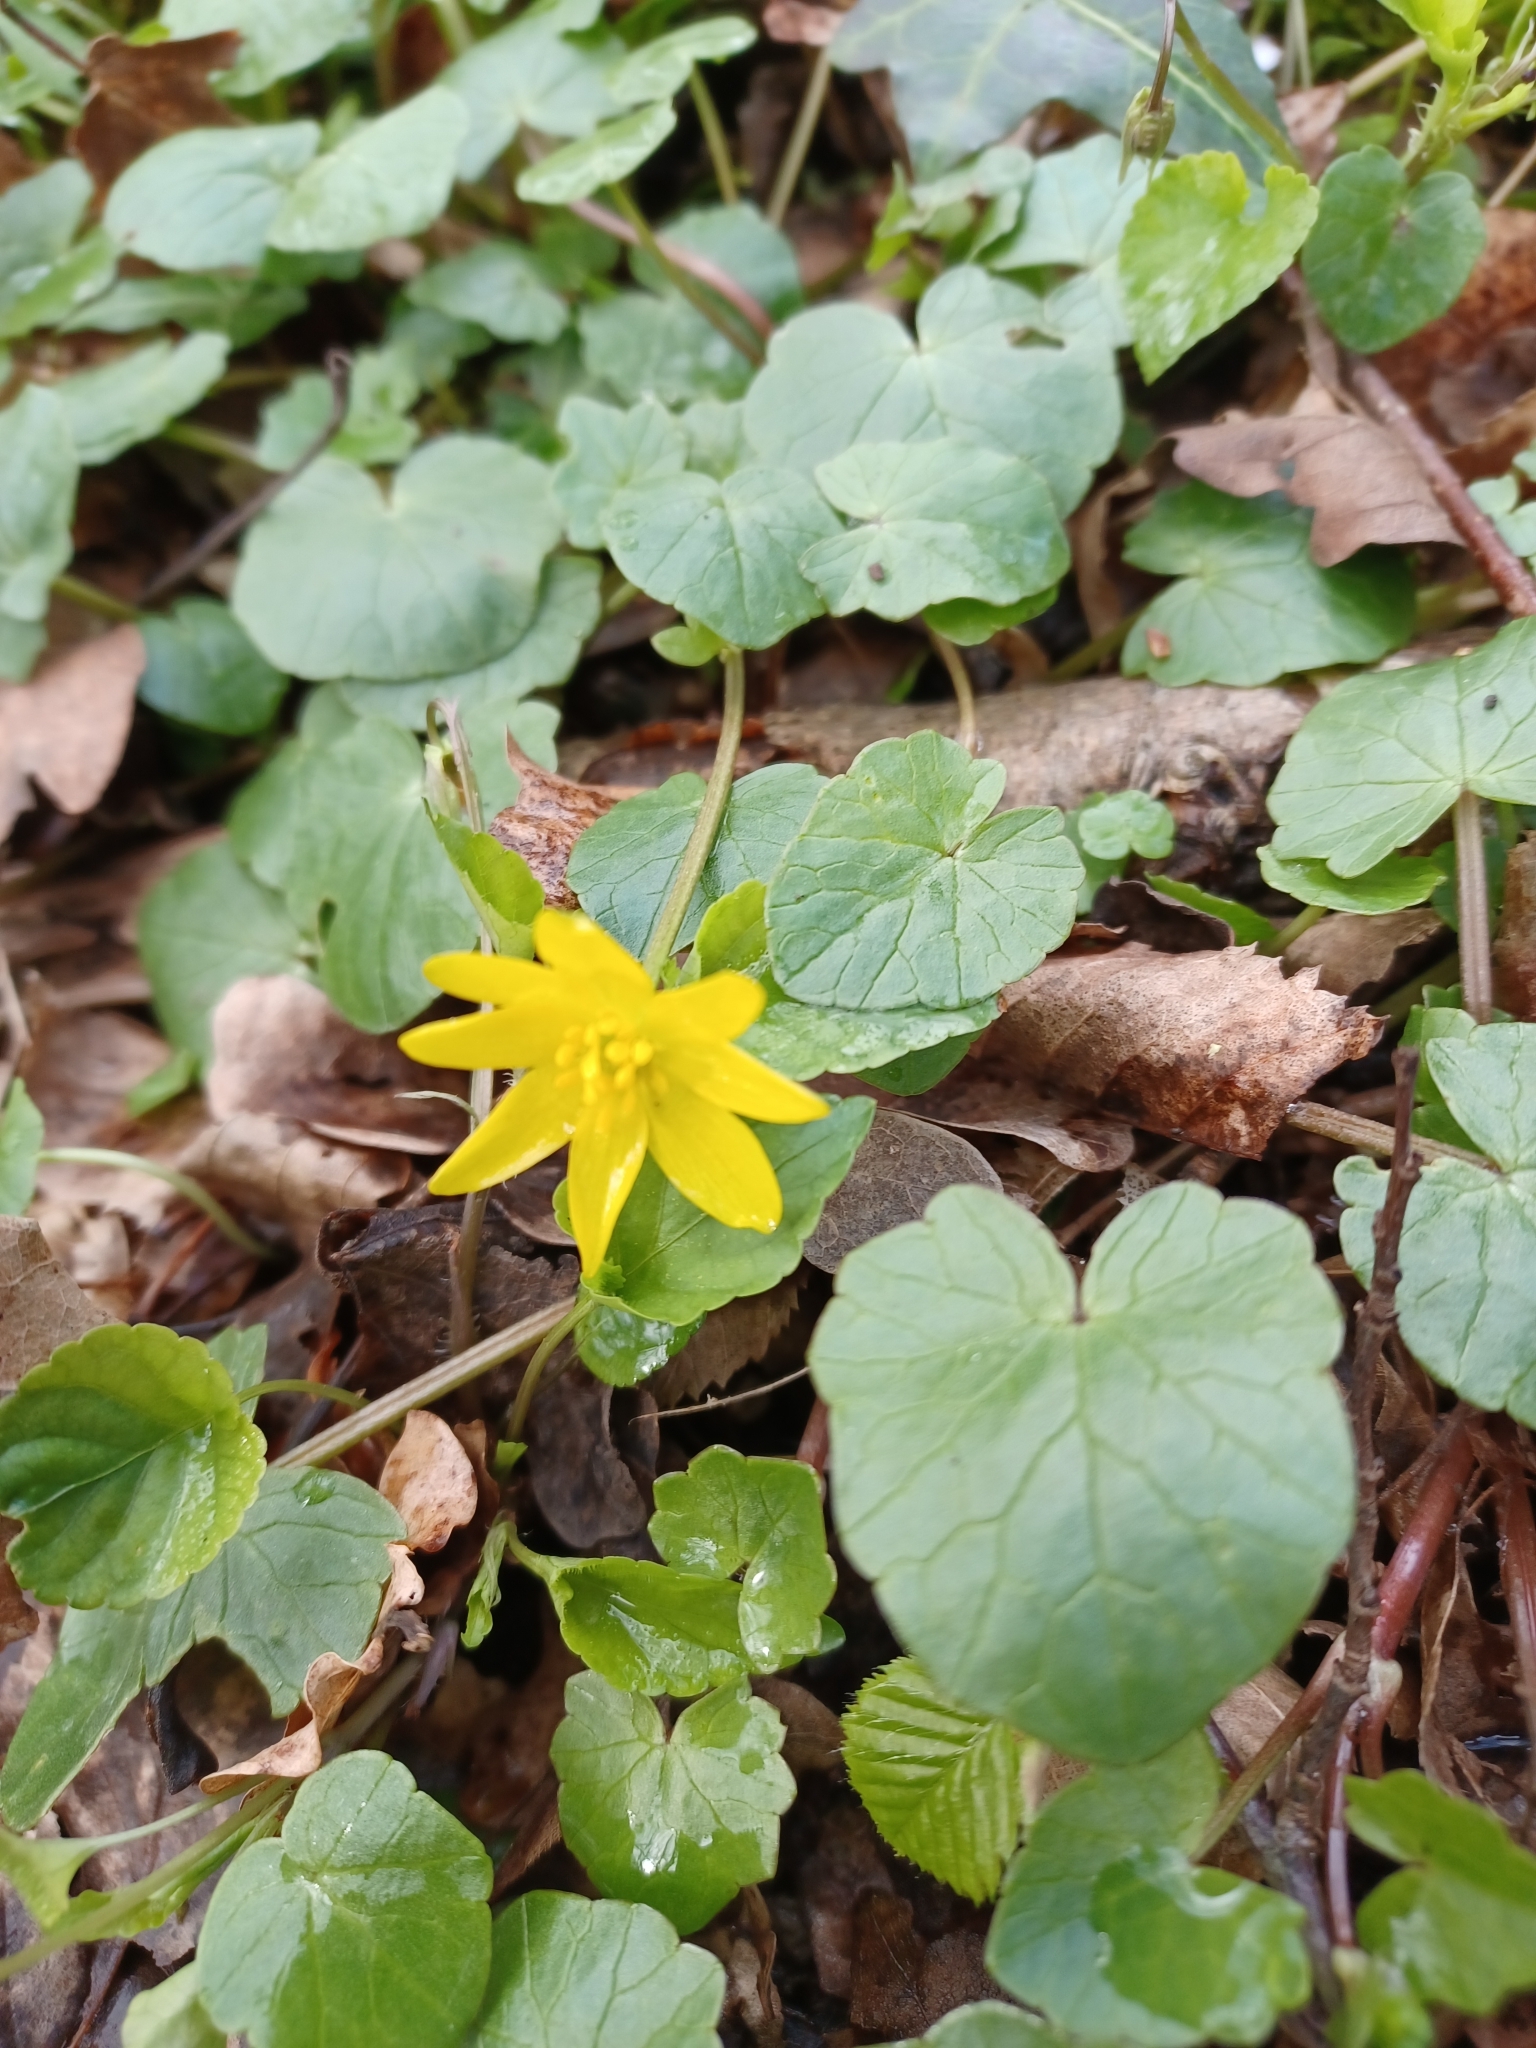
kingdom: Plantae
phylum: Tracheophyta
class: Magnoliopsida
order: Ranunculales
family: Ranunculaceae
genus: Ficaria
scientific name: Ficaria verna
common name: Lesser celandine
